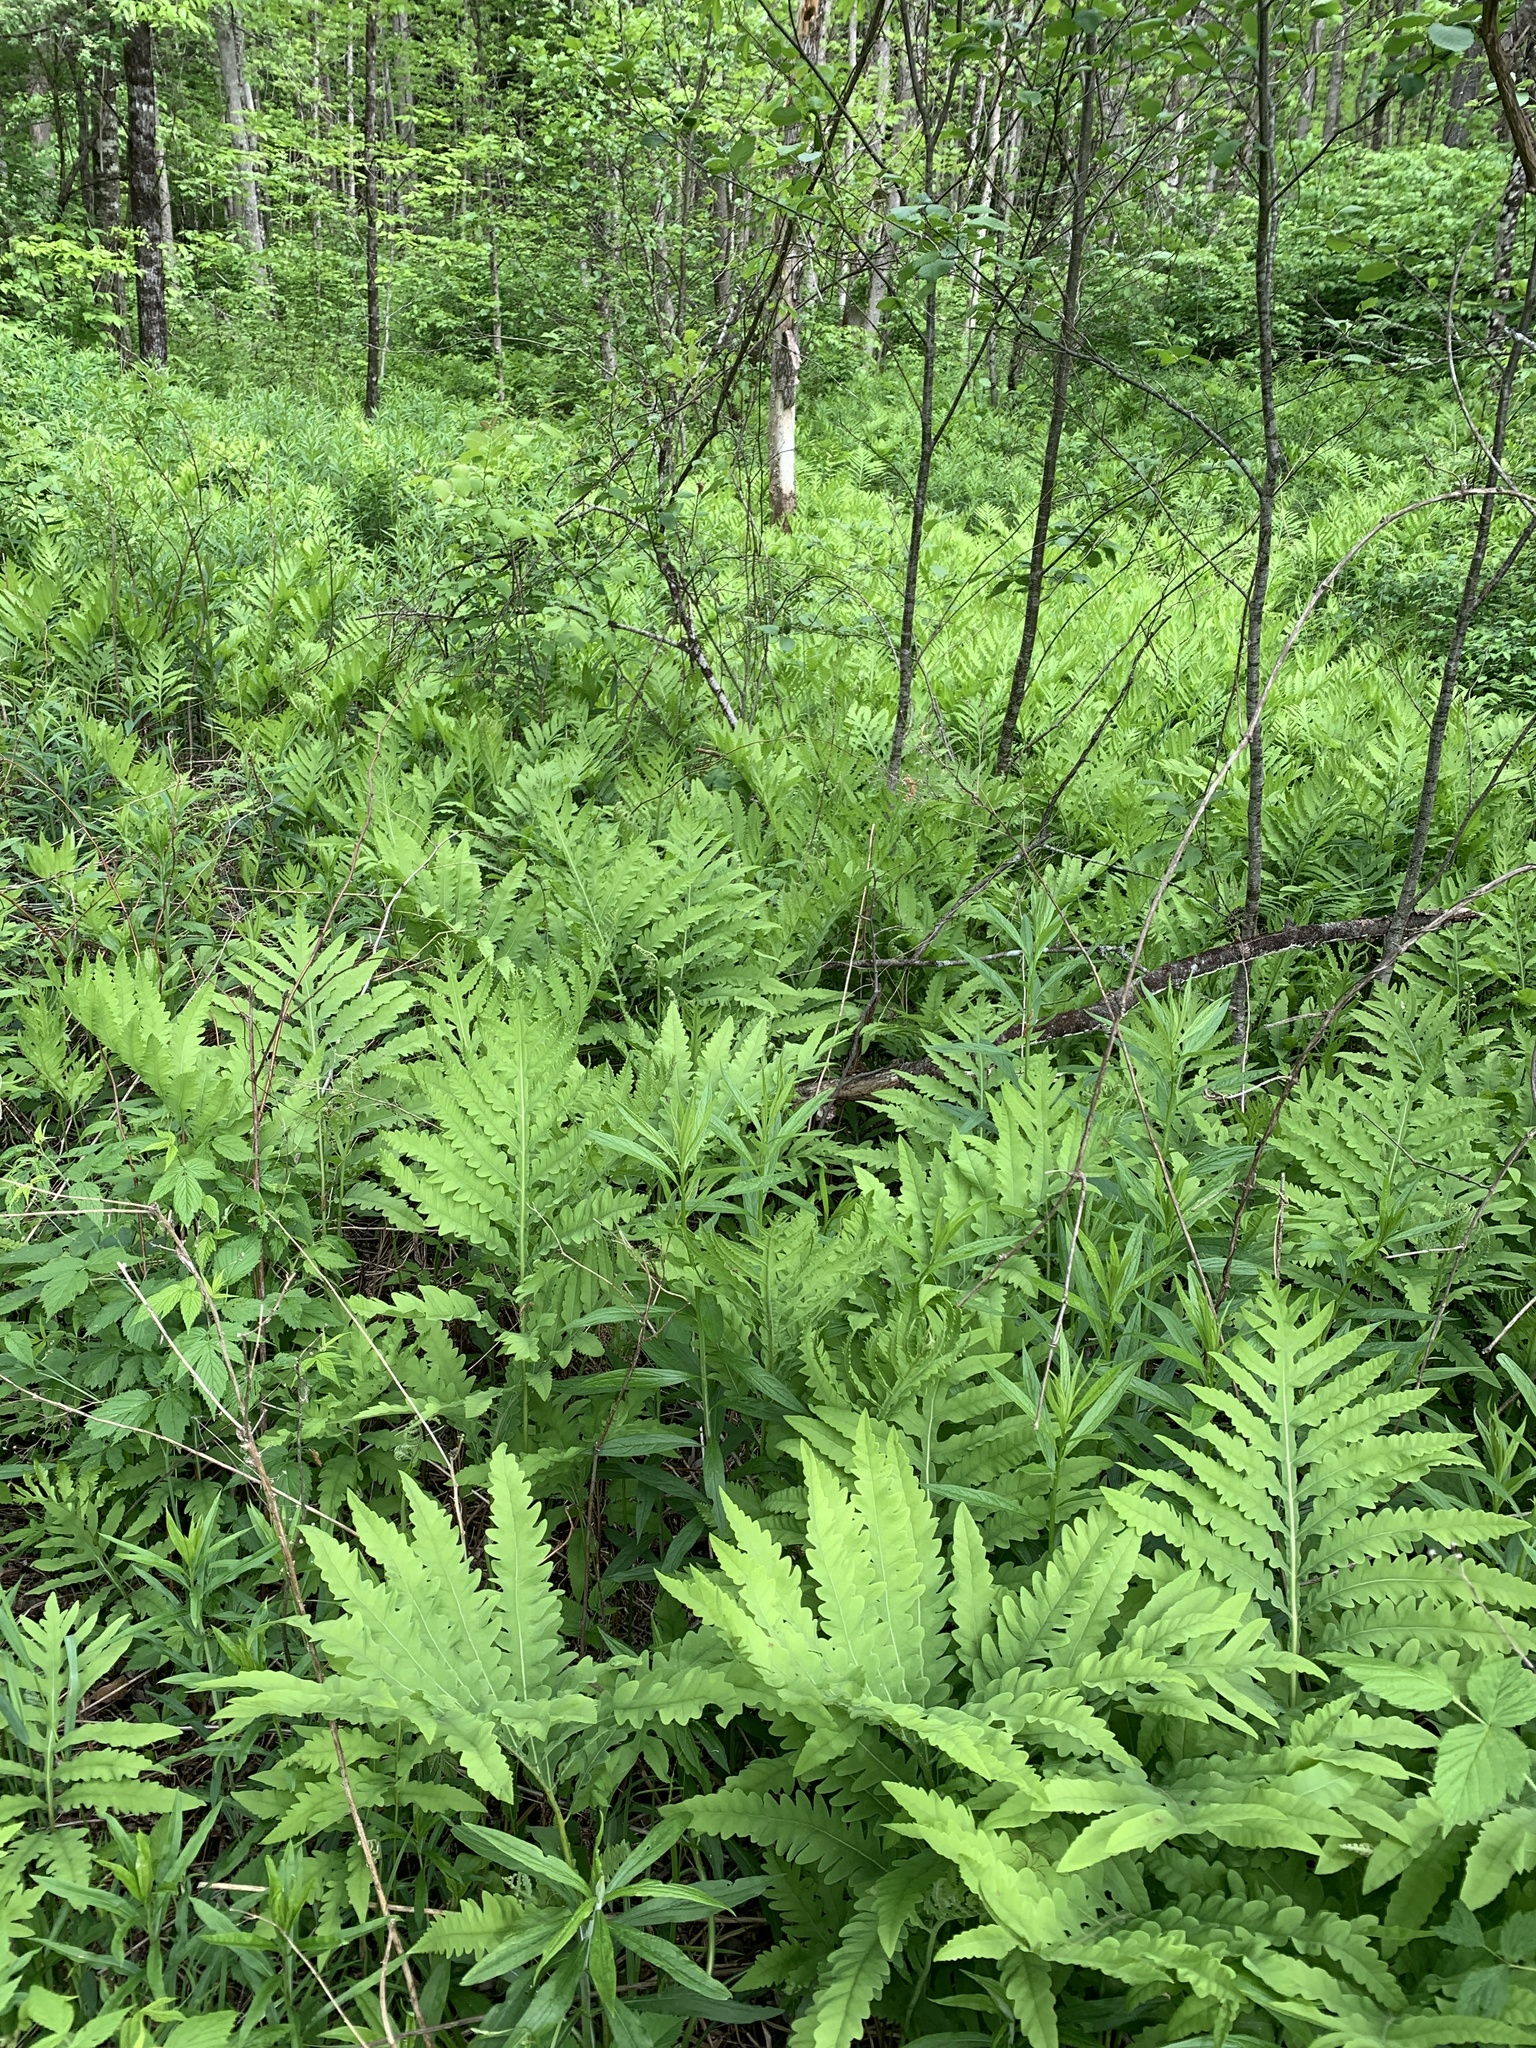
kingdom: Plantae
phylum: Tracheophyta
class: Polypodiopsida
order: Polypodiales
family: Onocleaceae
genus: Onoclea
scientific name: Onoclea sensibilis
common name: Sensitive fern
